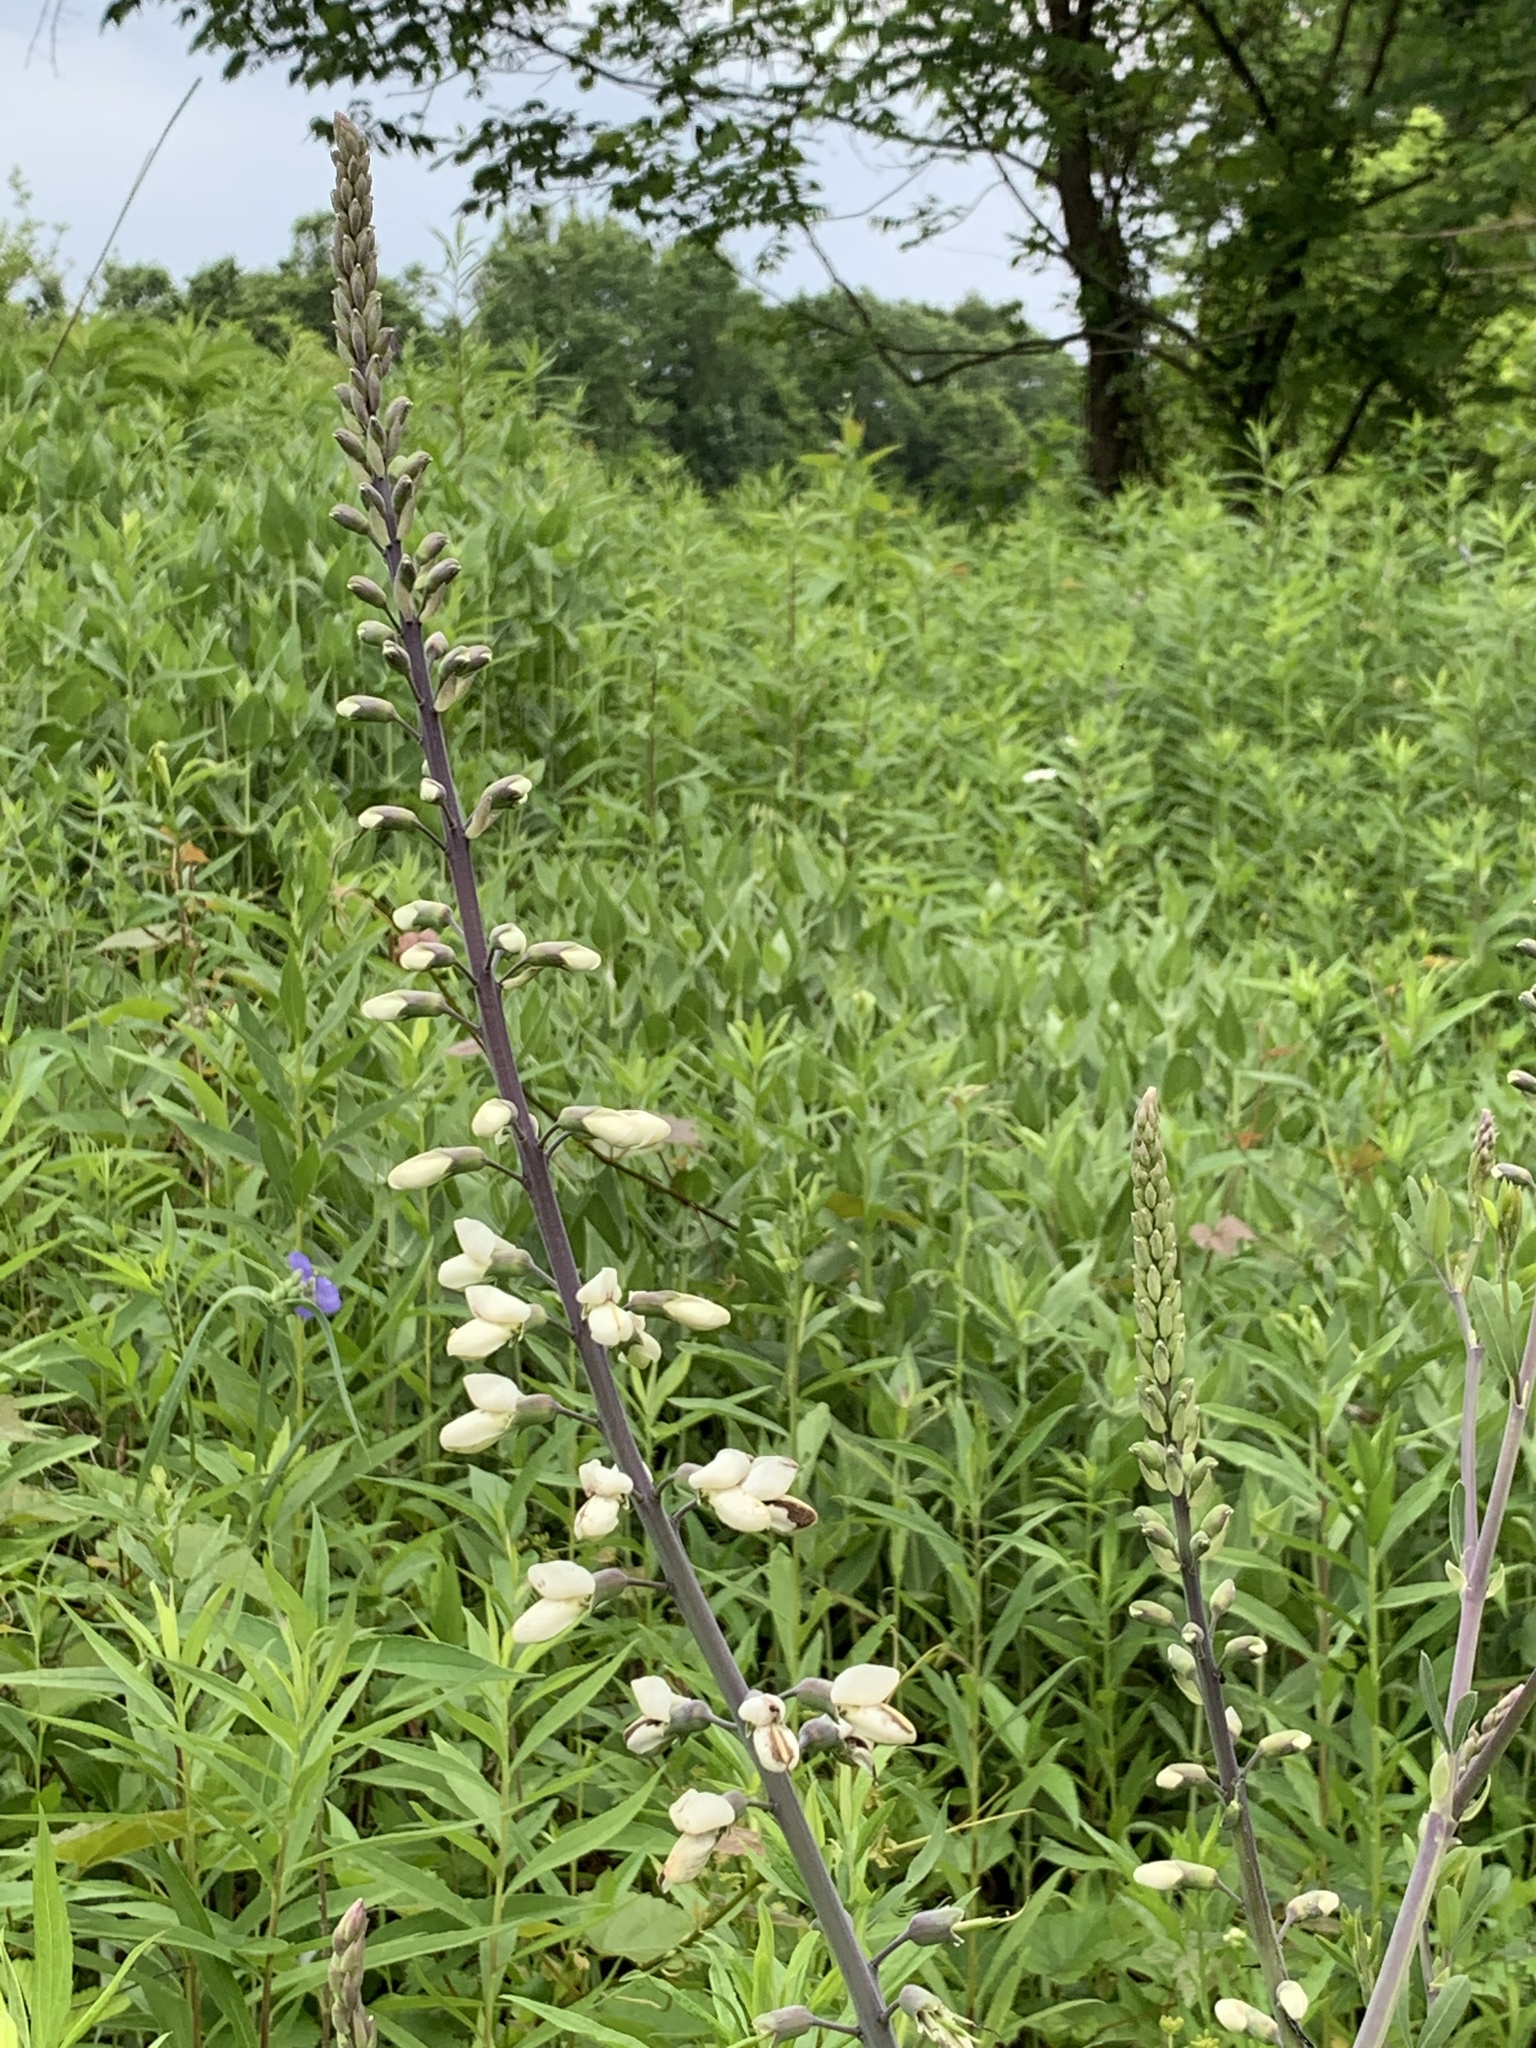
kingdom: Plantae
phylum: Tracheophyta
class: Magnoliopsida
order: Fabales
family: Fabaceae
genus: Baptisia
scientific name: Baptisia alba
